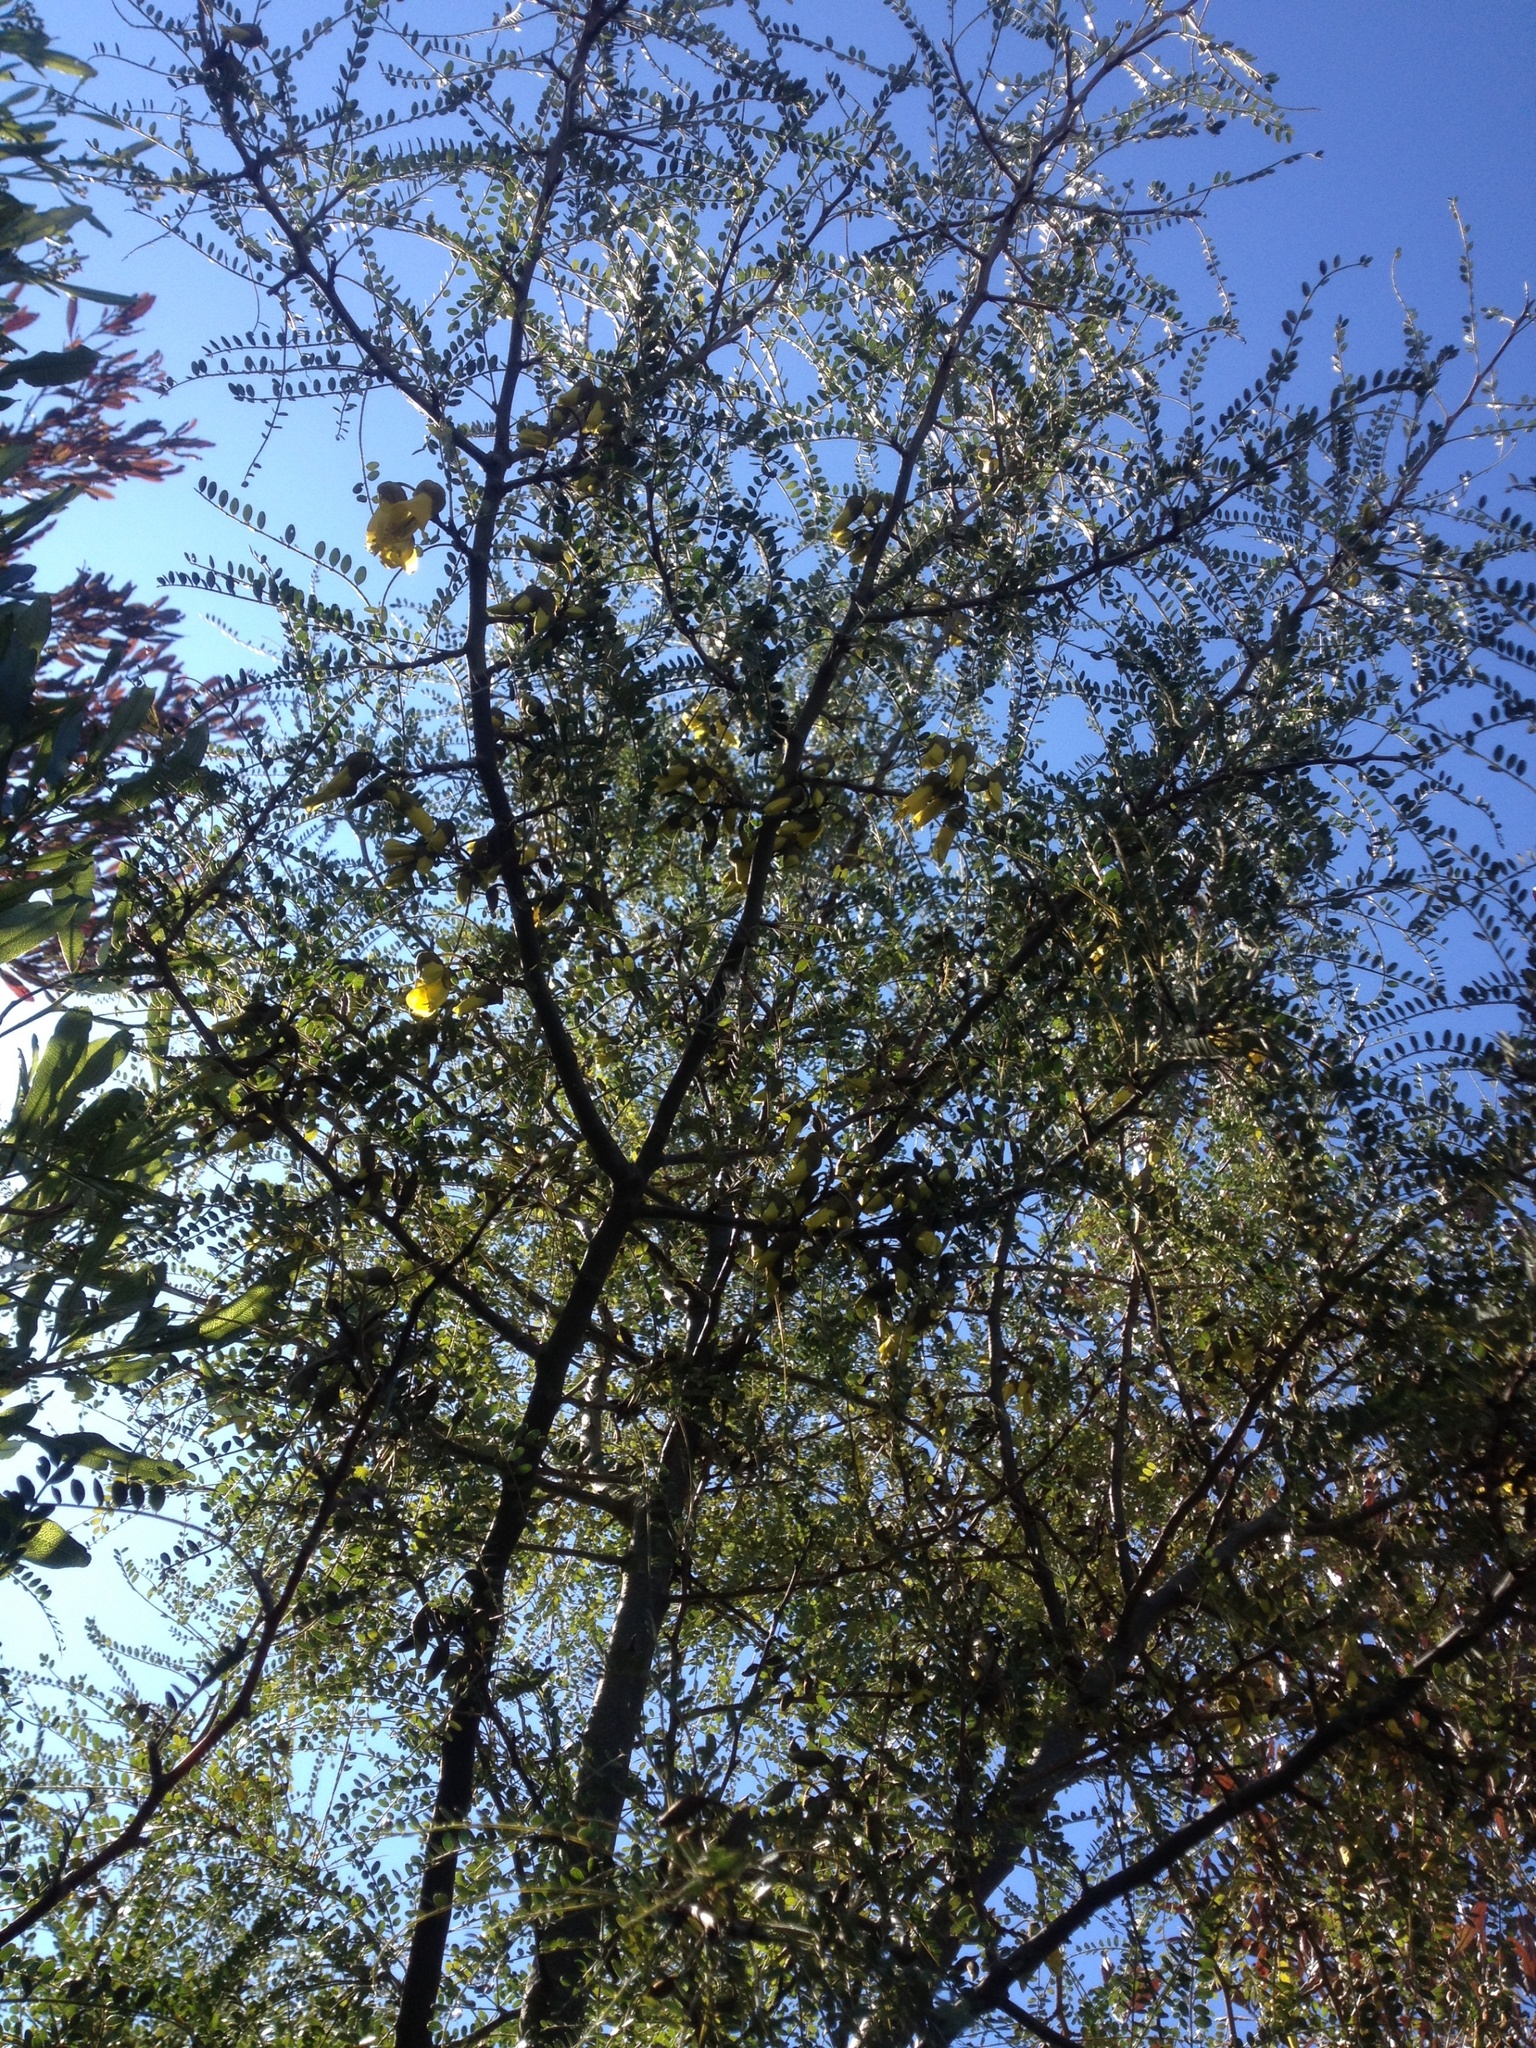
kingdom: Plantae
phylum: Tracheophyta
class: Magnoliopsida
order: Fabales
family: Fabaceae
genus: Sophora
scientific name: Sophora microphylla
